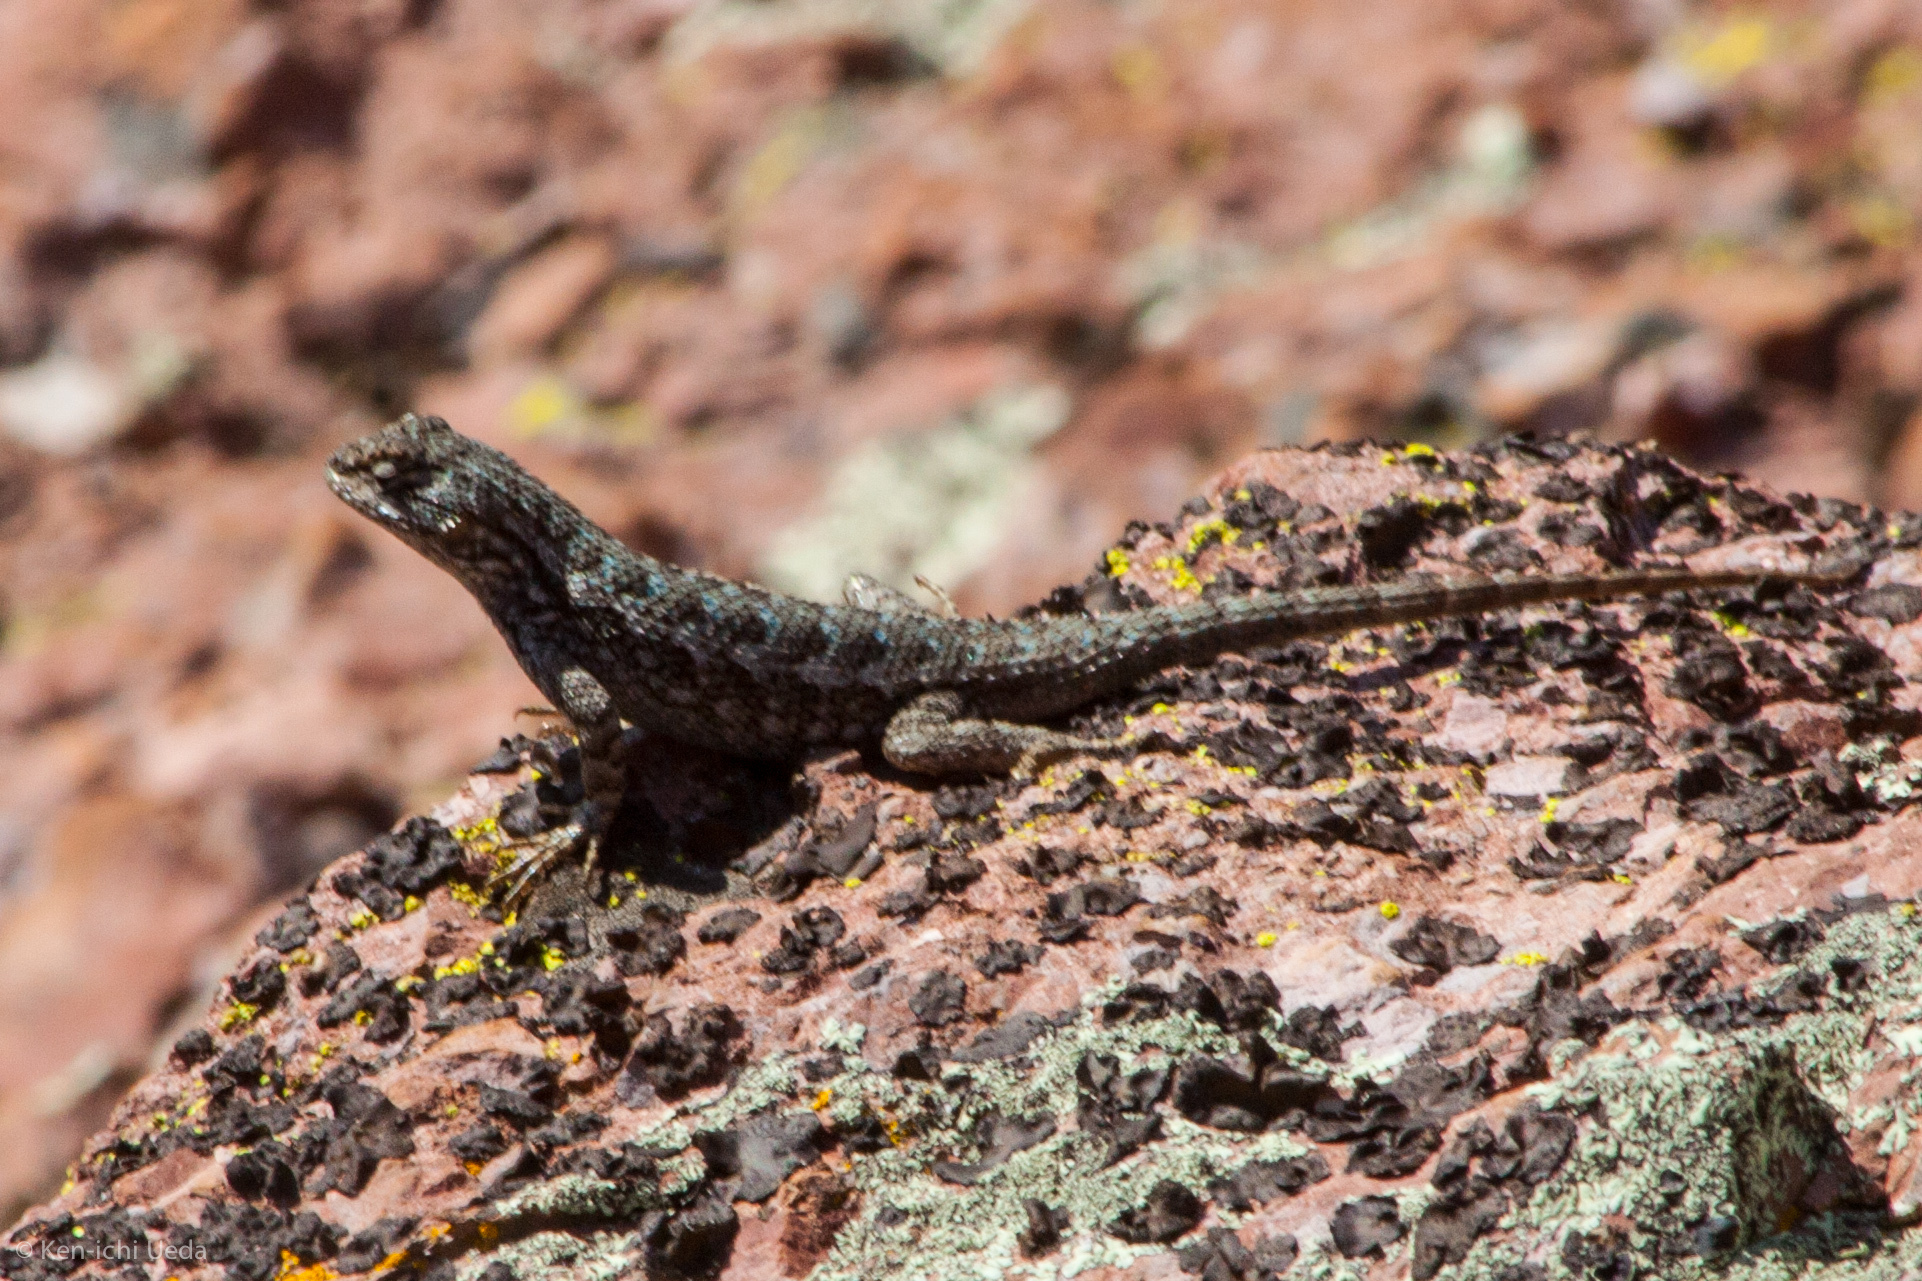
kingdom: Animalia
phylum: Chordata
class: Squamata
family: Phrynosomatidae
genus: Sceloporus
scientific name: Sceloporus occidentalis
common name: Western fence lizard
